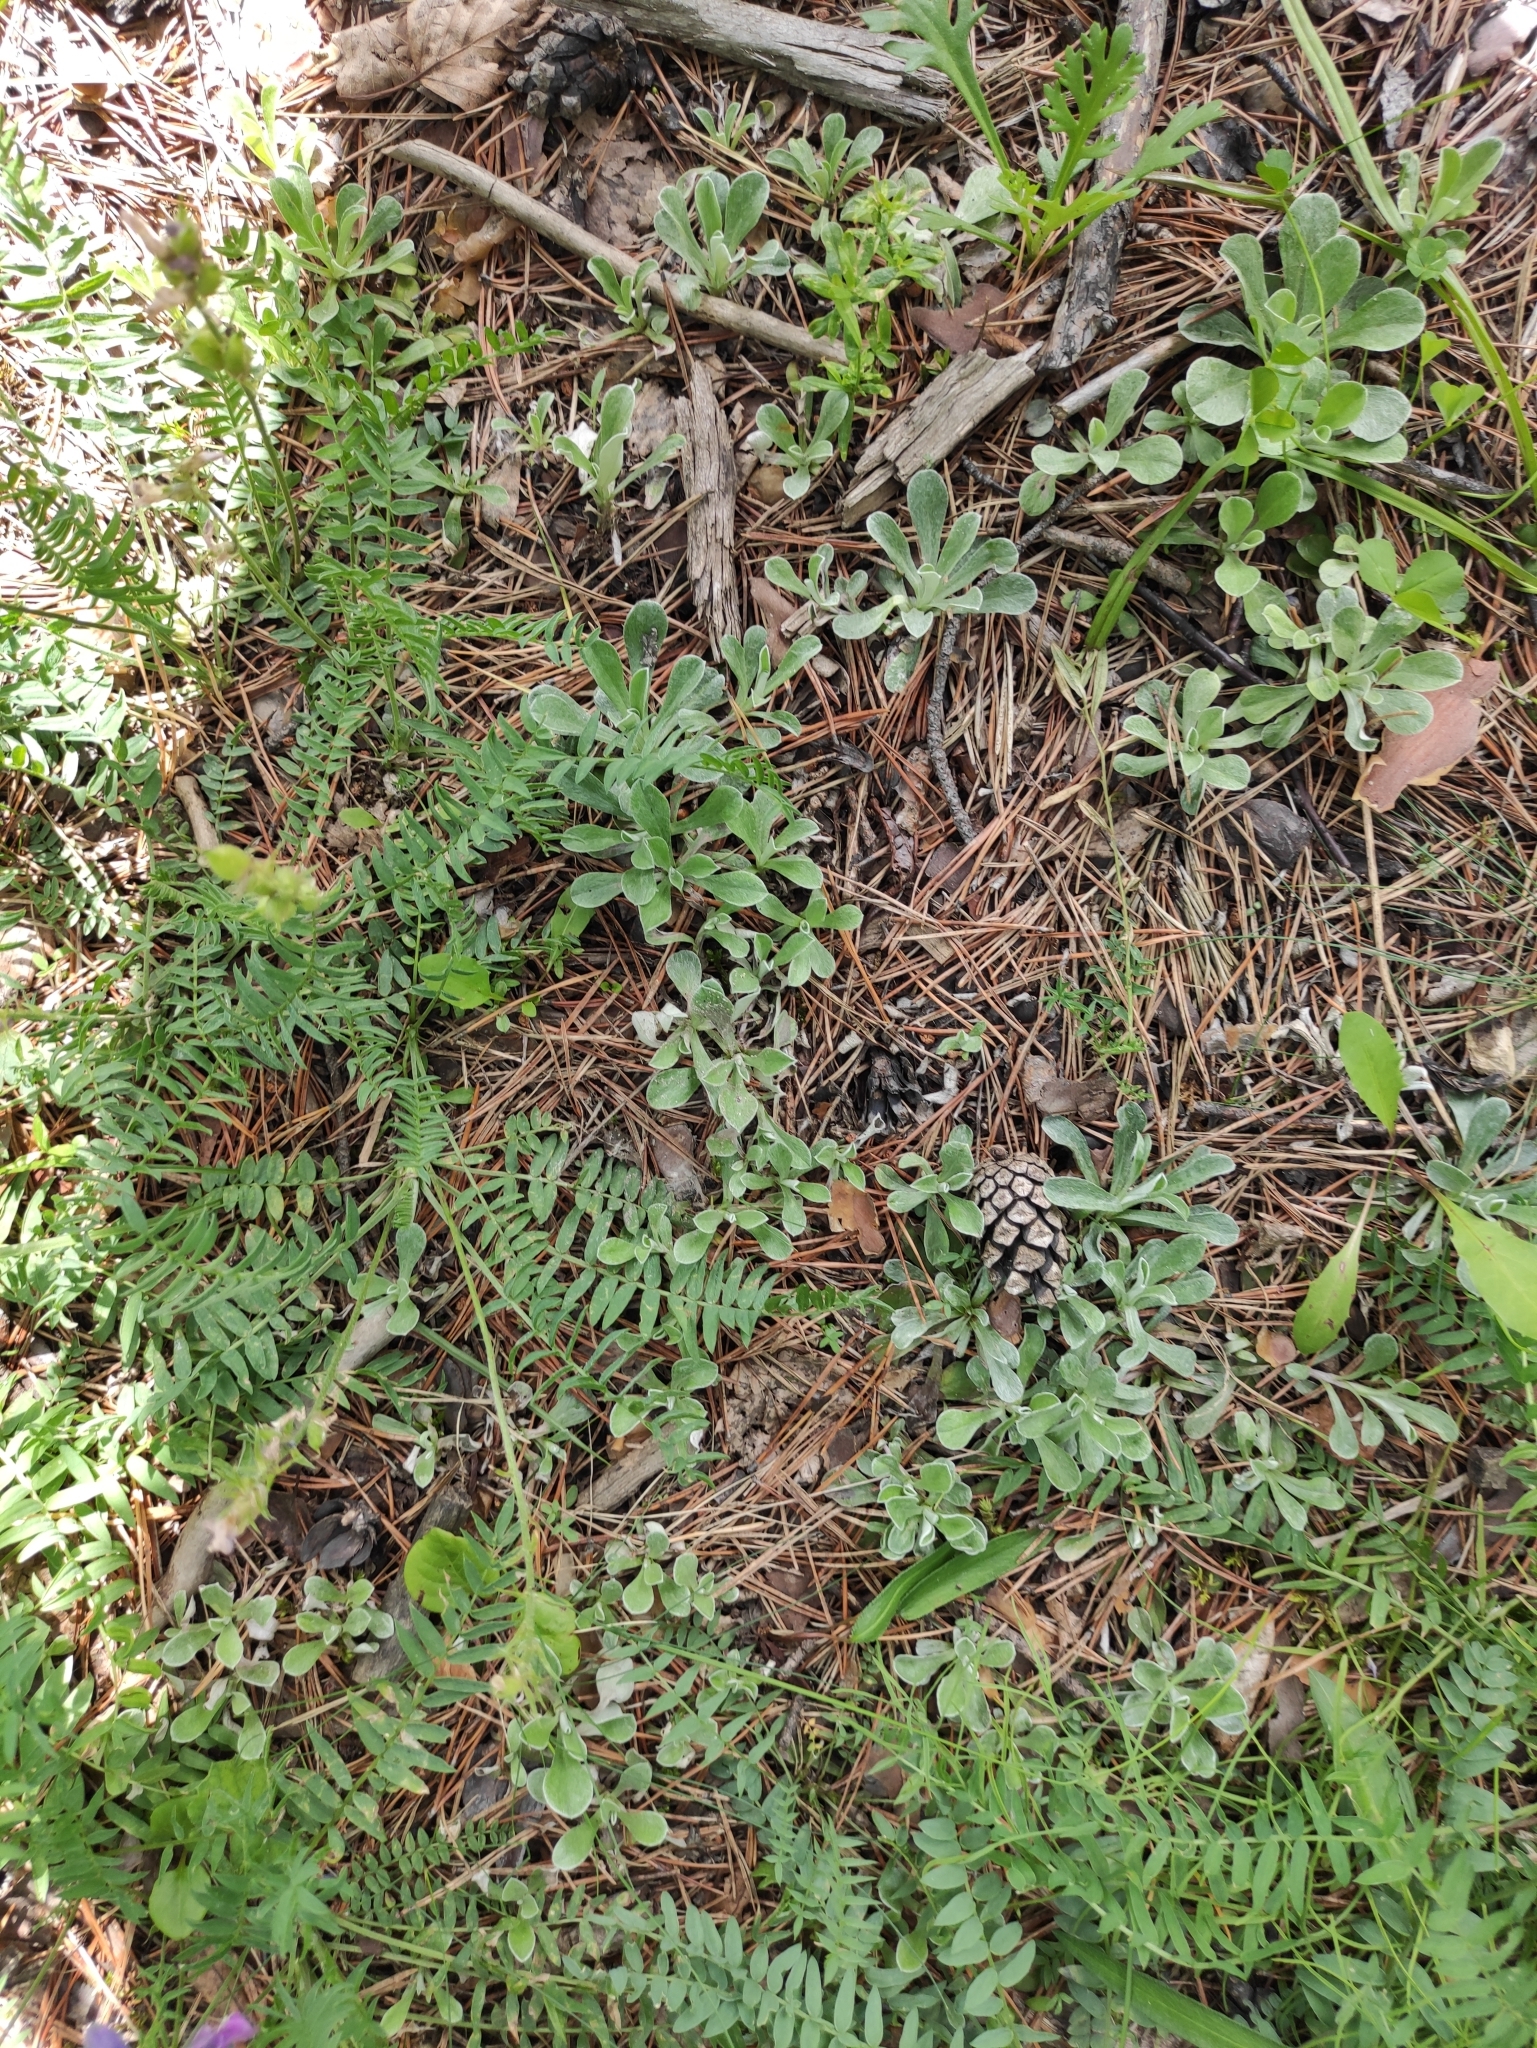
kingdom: Plantae
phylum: Tracheophyta
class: Magnoliopsida
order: Asterales
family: Asteraceae
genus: Antennaria
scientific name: Antennaria dioica
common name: Mountain everlasting
